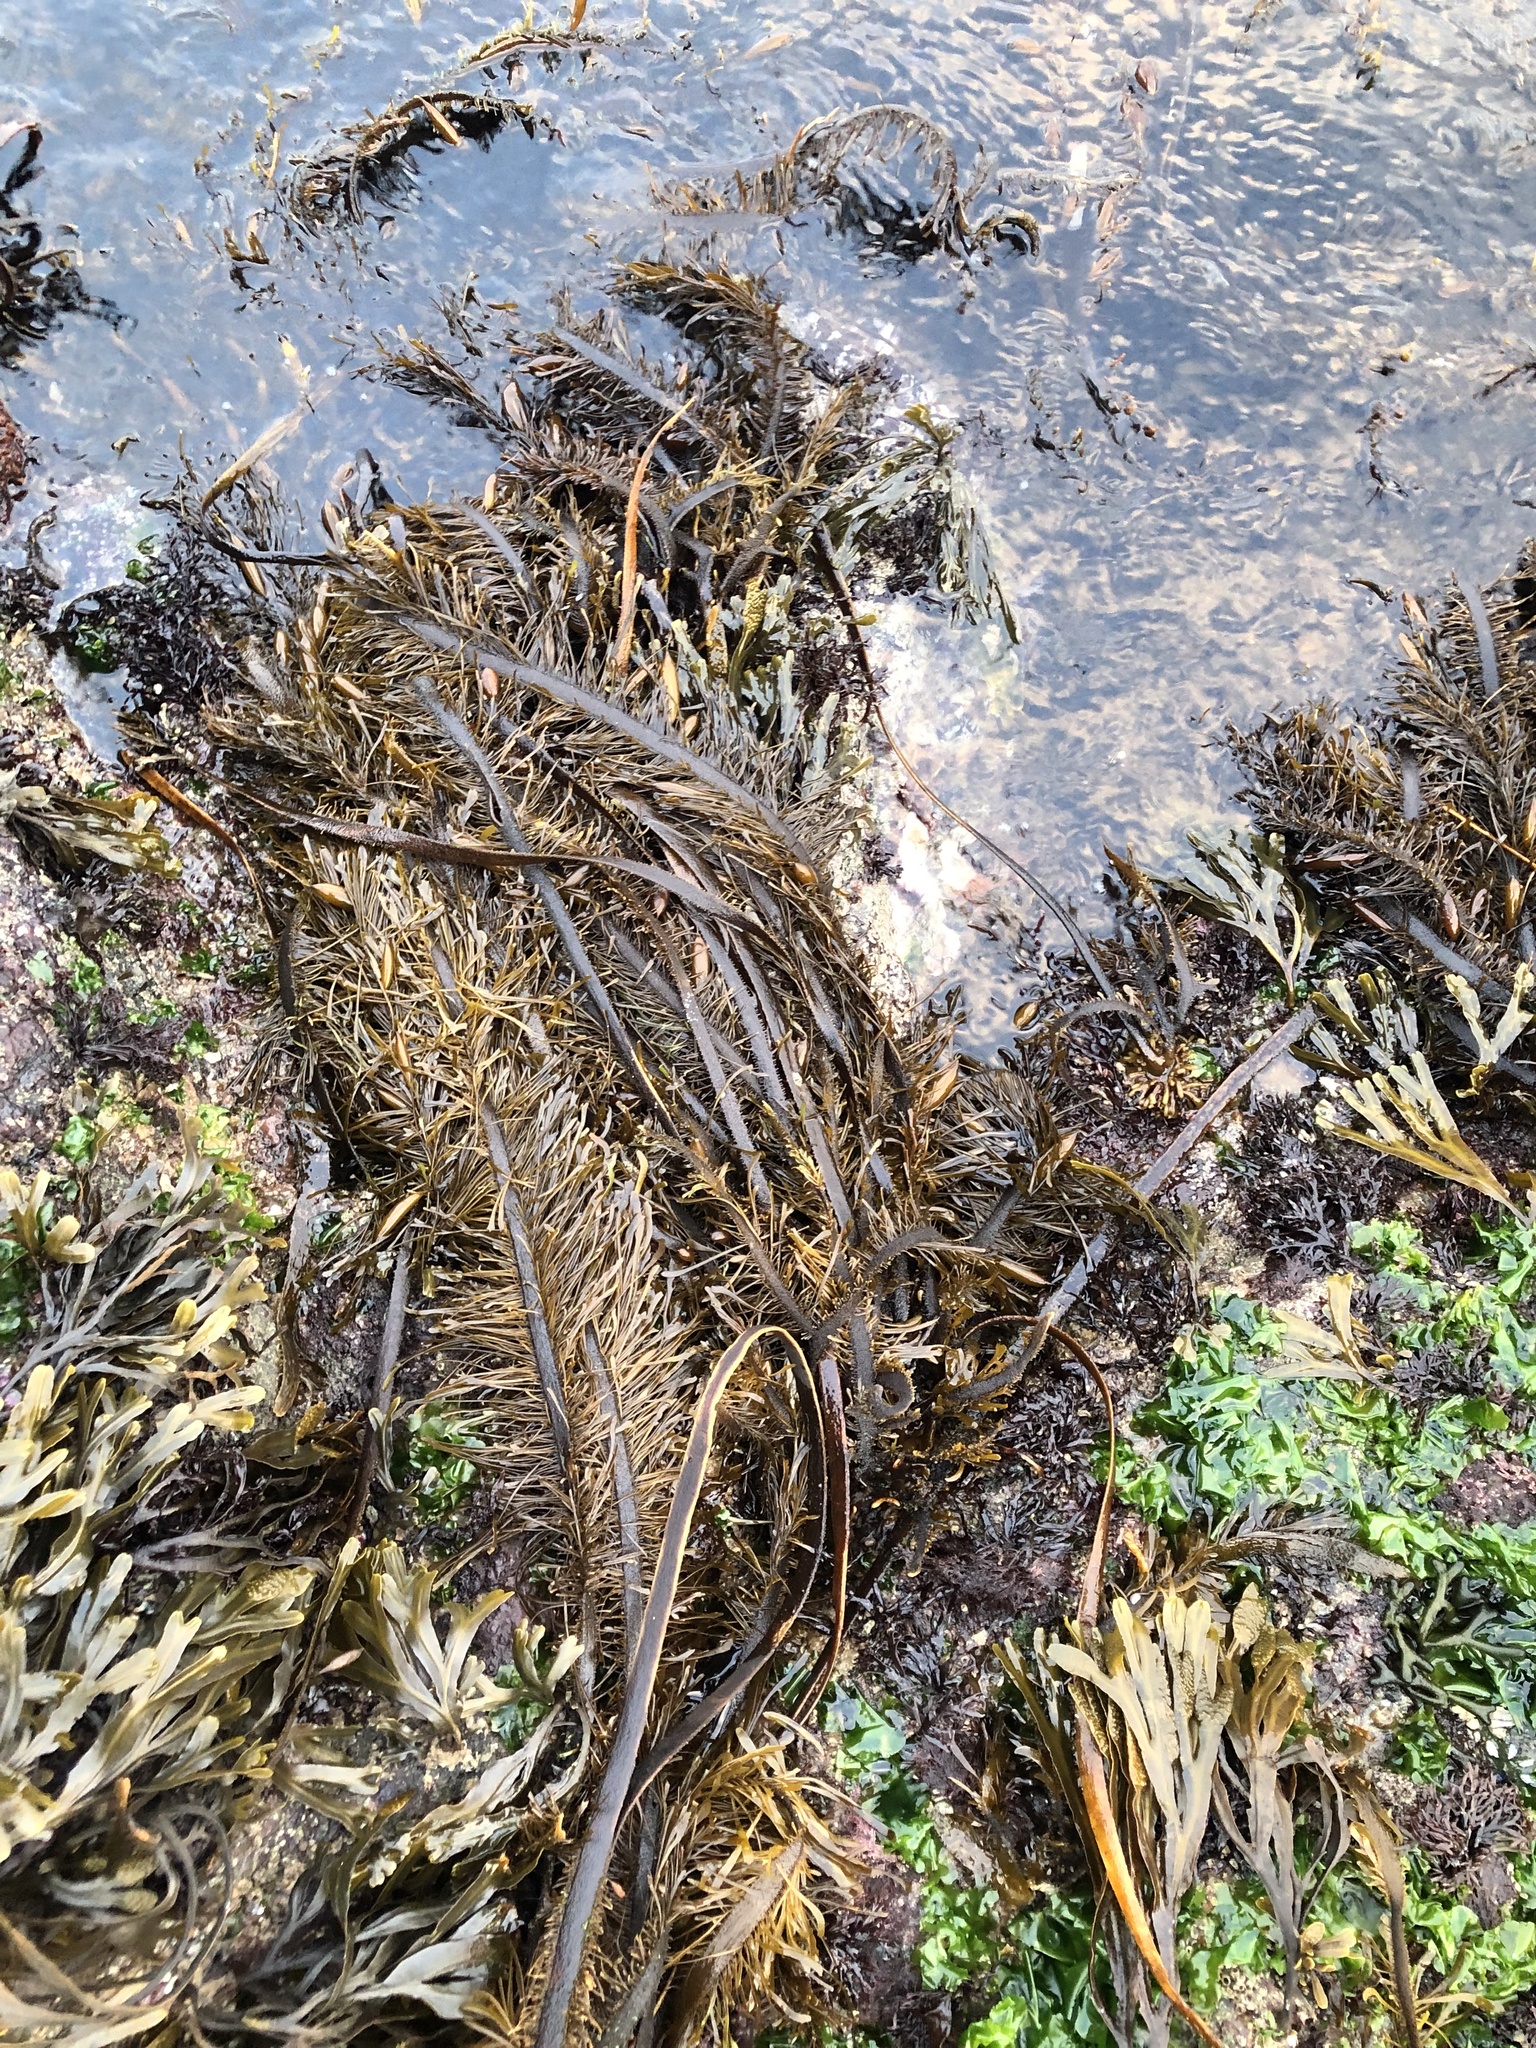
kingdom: Chromista
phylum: Ochrophyta
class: Phaeophyceae
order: Laminariales
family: Lessoniaceae
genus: Egregia
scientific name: Egregia menziesii
